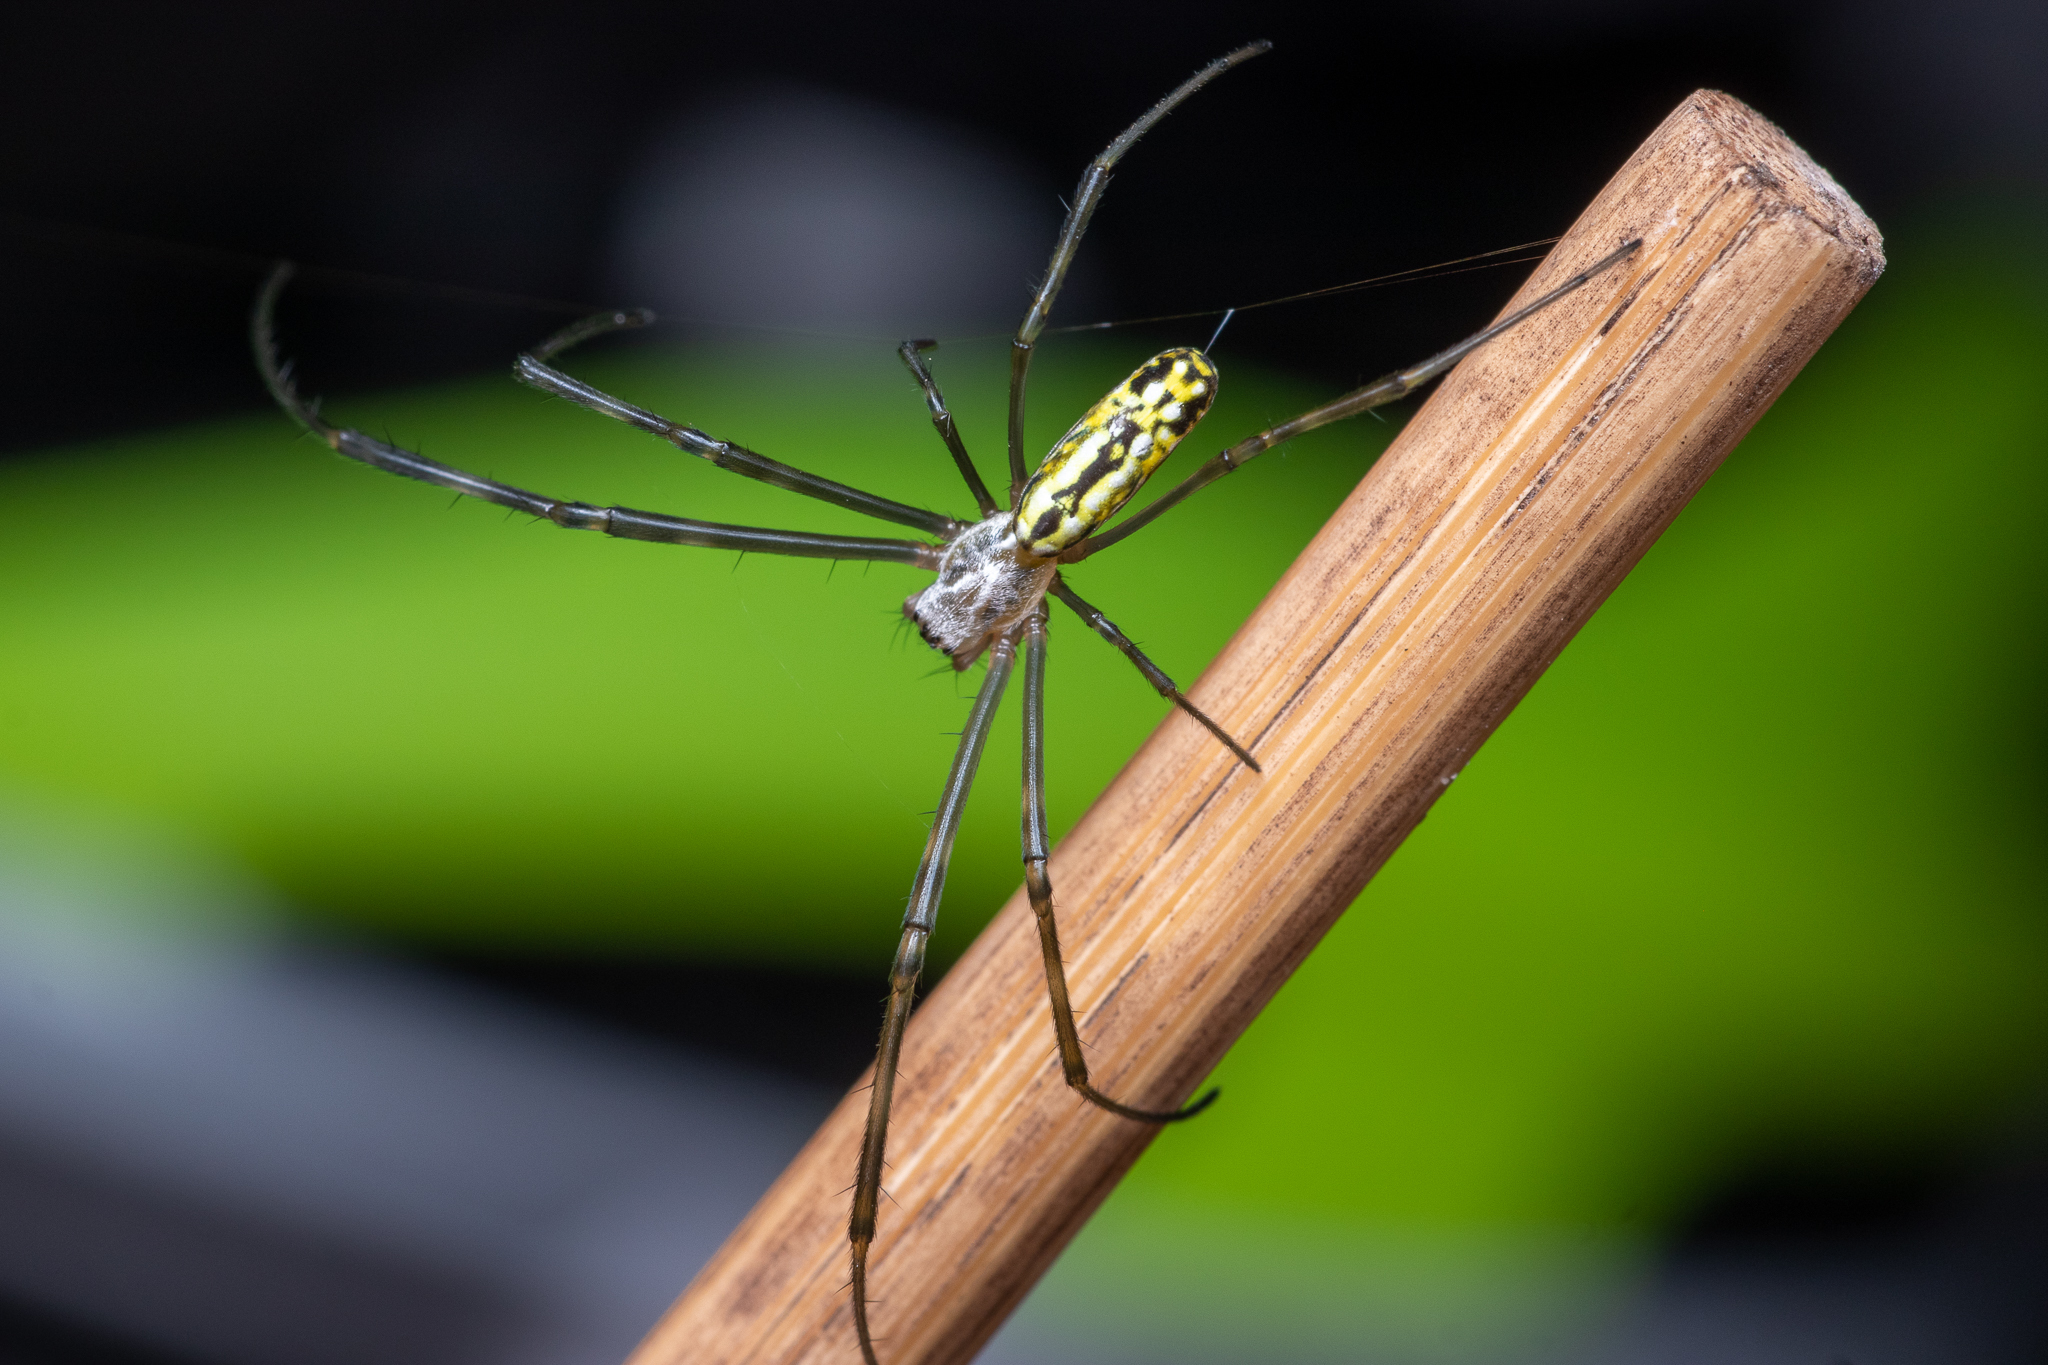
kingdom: Animalia
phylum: Arthropoda
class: Arachnida
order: Araneae
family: Araneidae
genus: Trichonephila
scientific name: Trichonephila clavata
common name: Jorō spider
